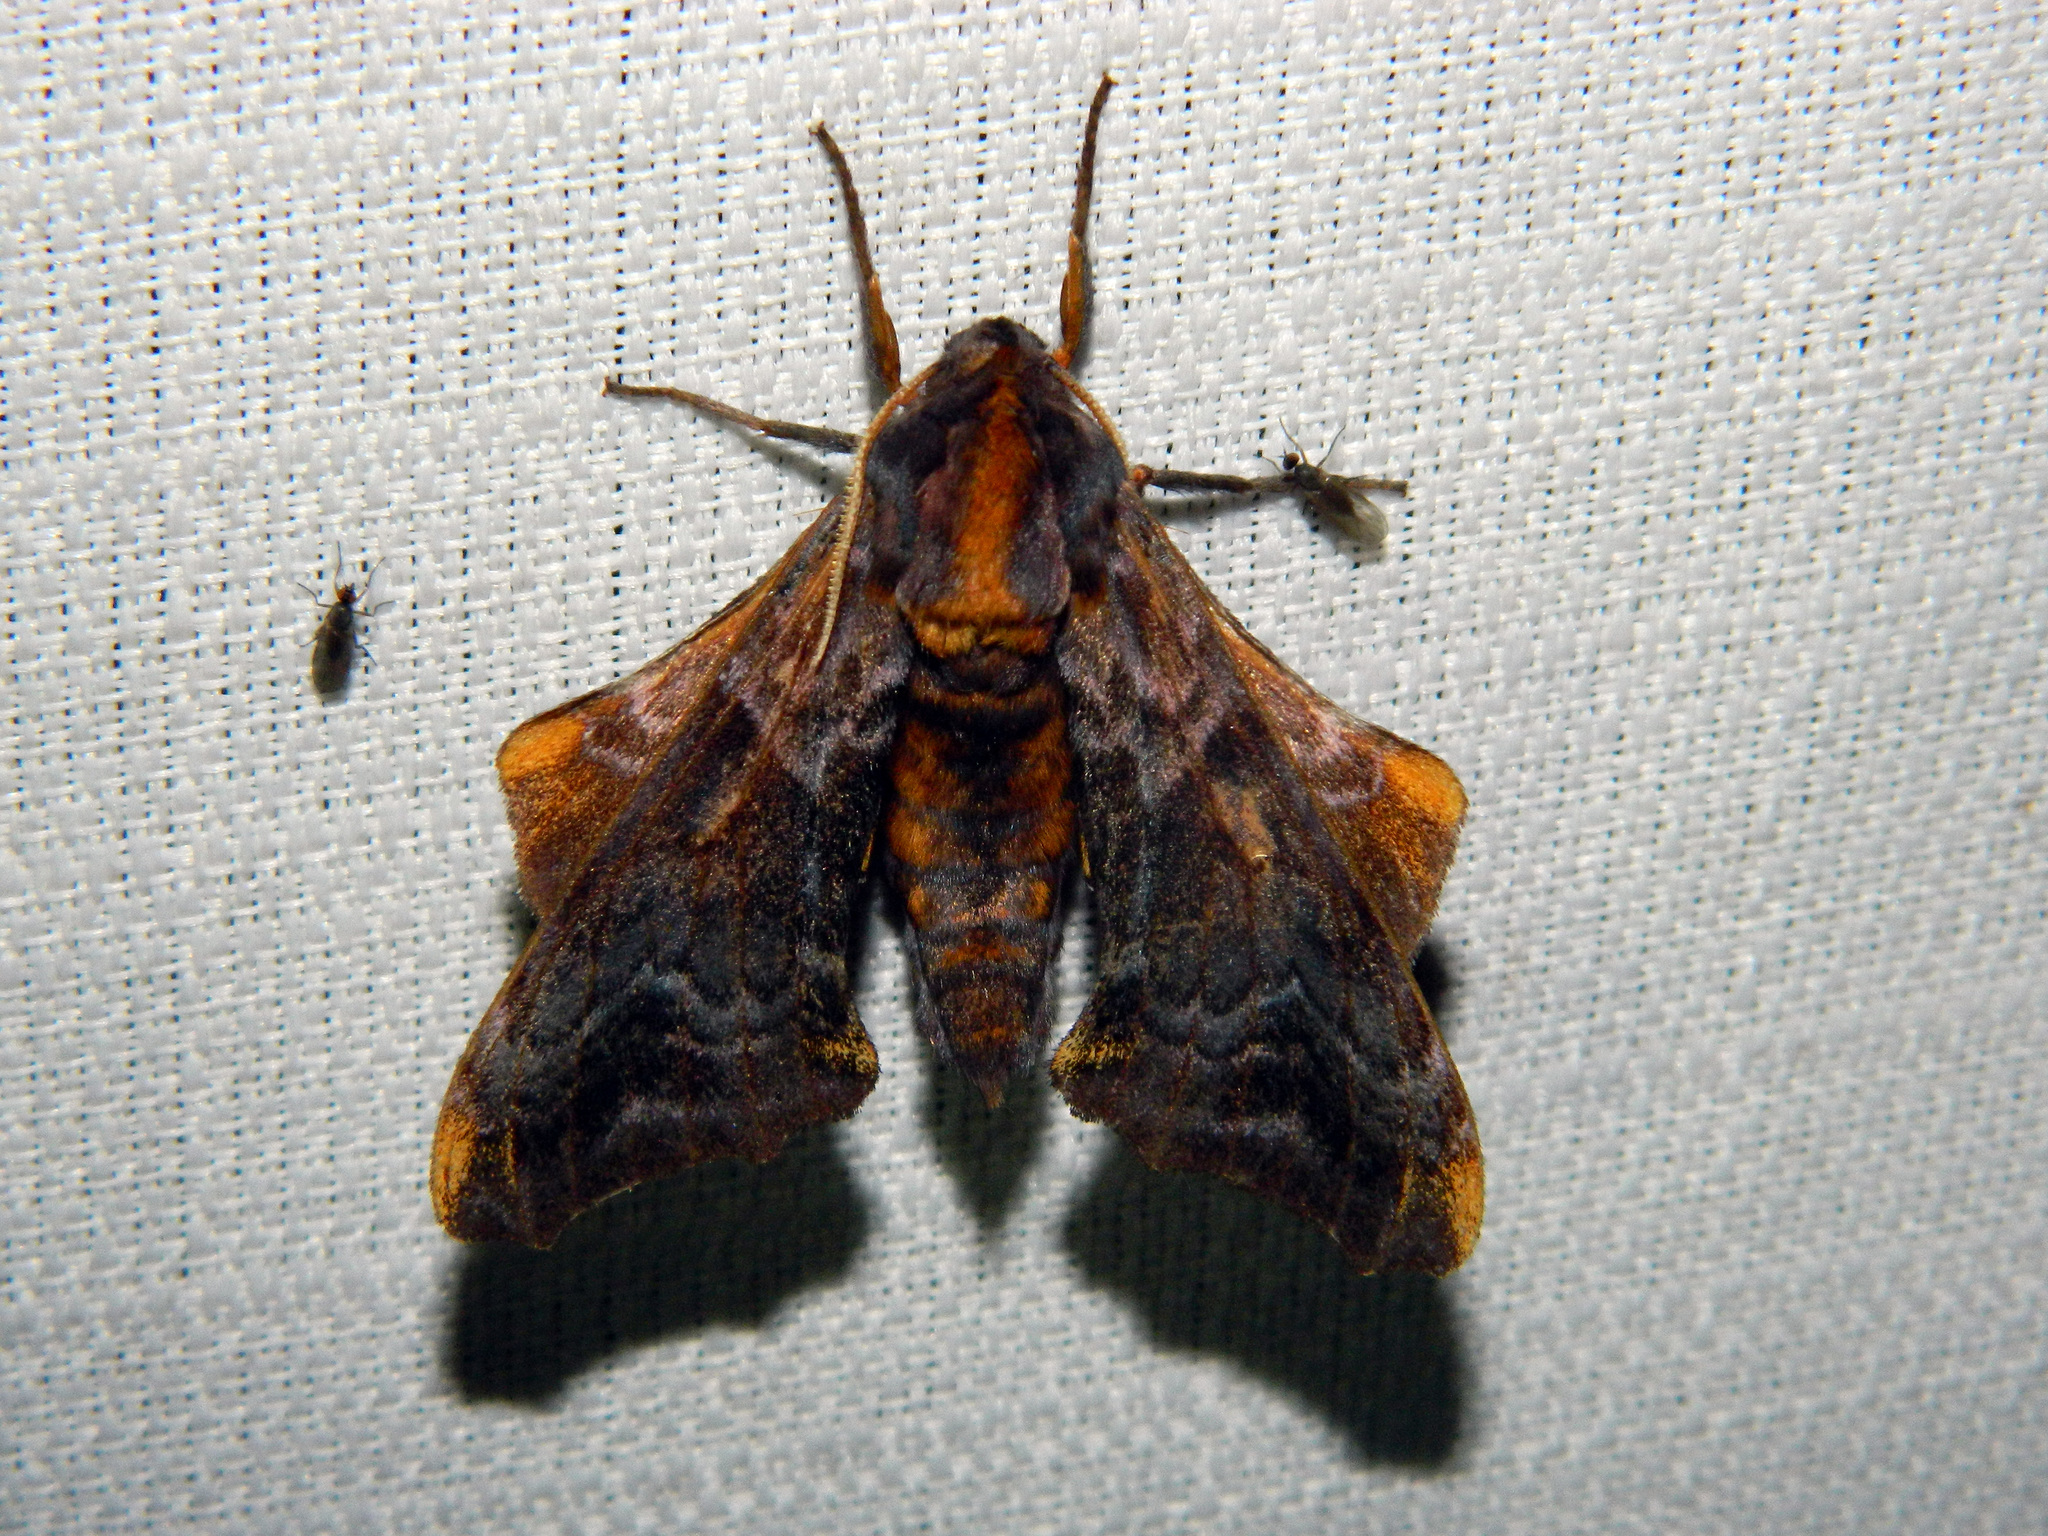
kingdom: Animalia
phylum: Arthropoda
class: Insecta
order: Lepidoptera
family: Sphingidae
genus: Paonias
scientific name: Paonias myops
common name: Small-eyed sphinx
